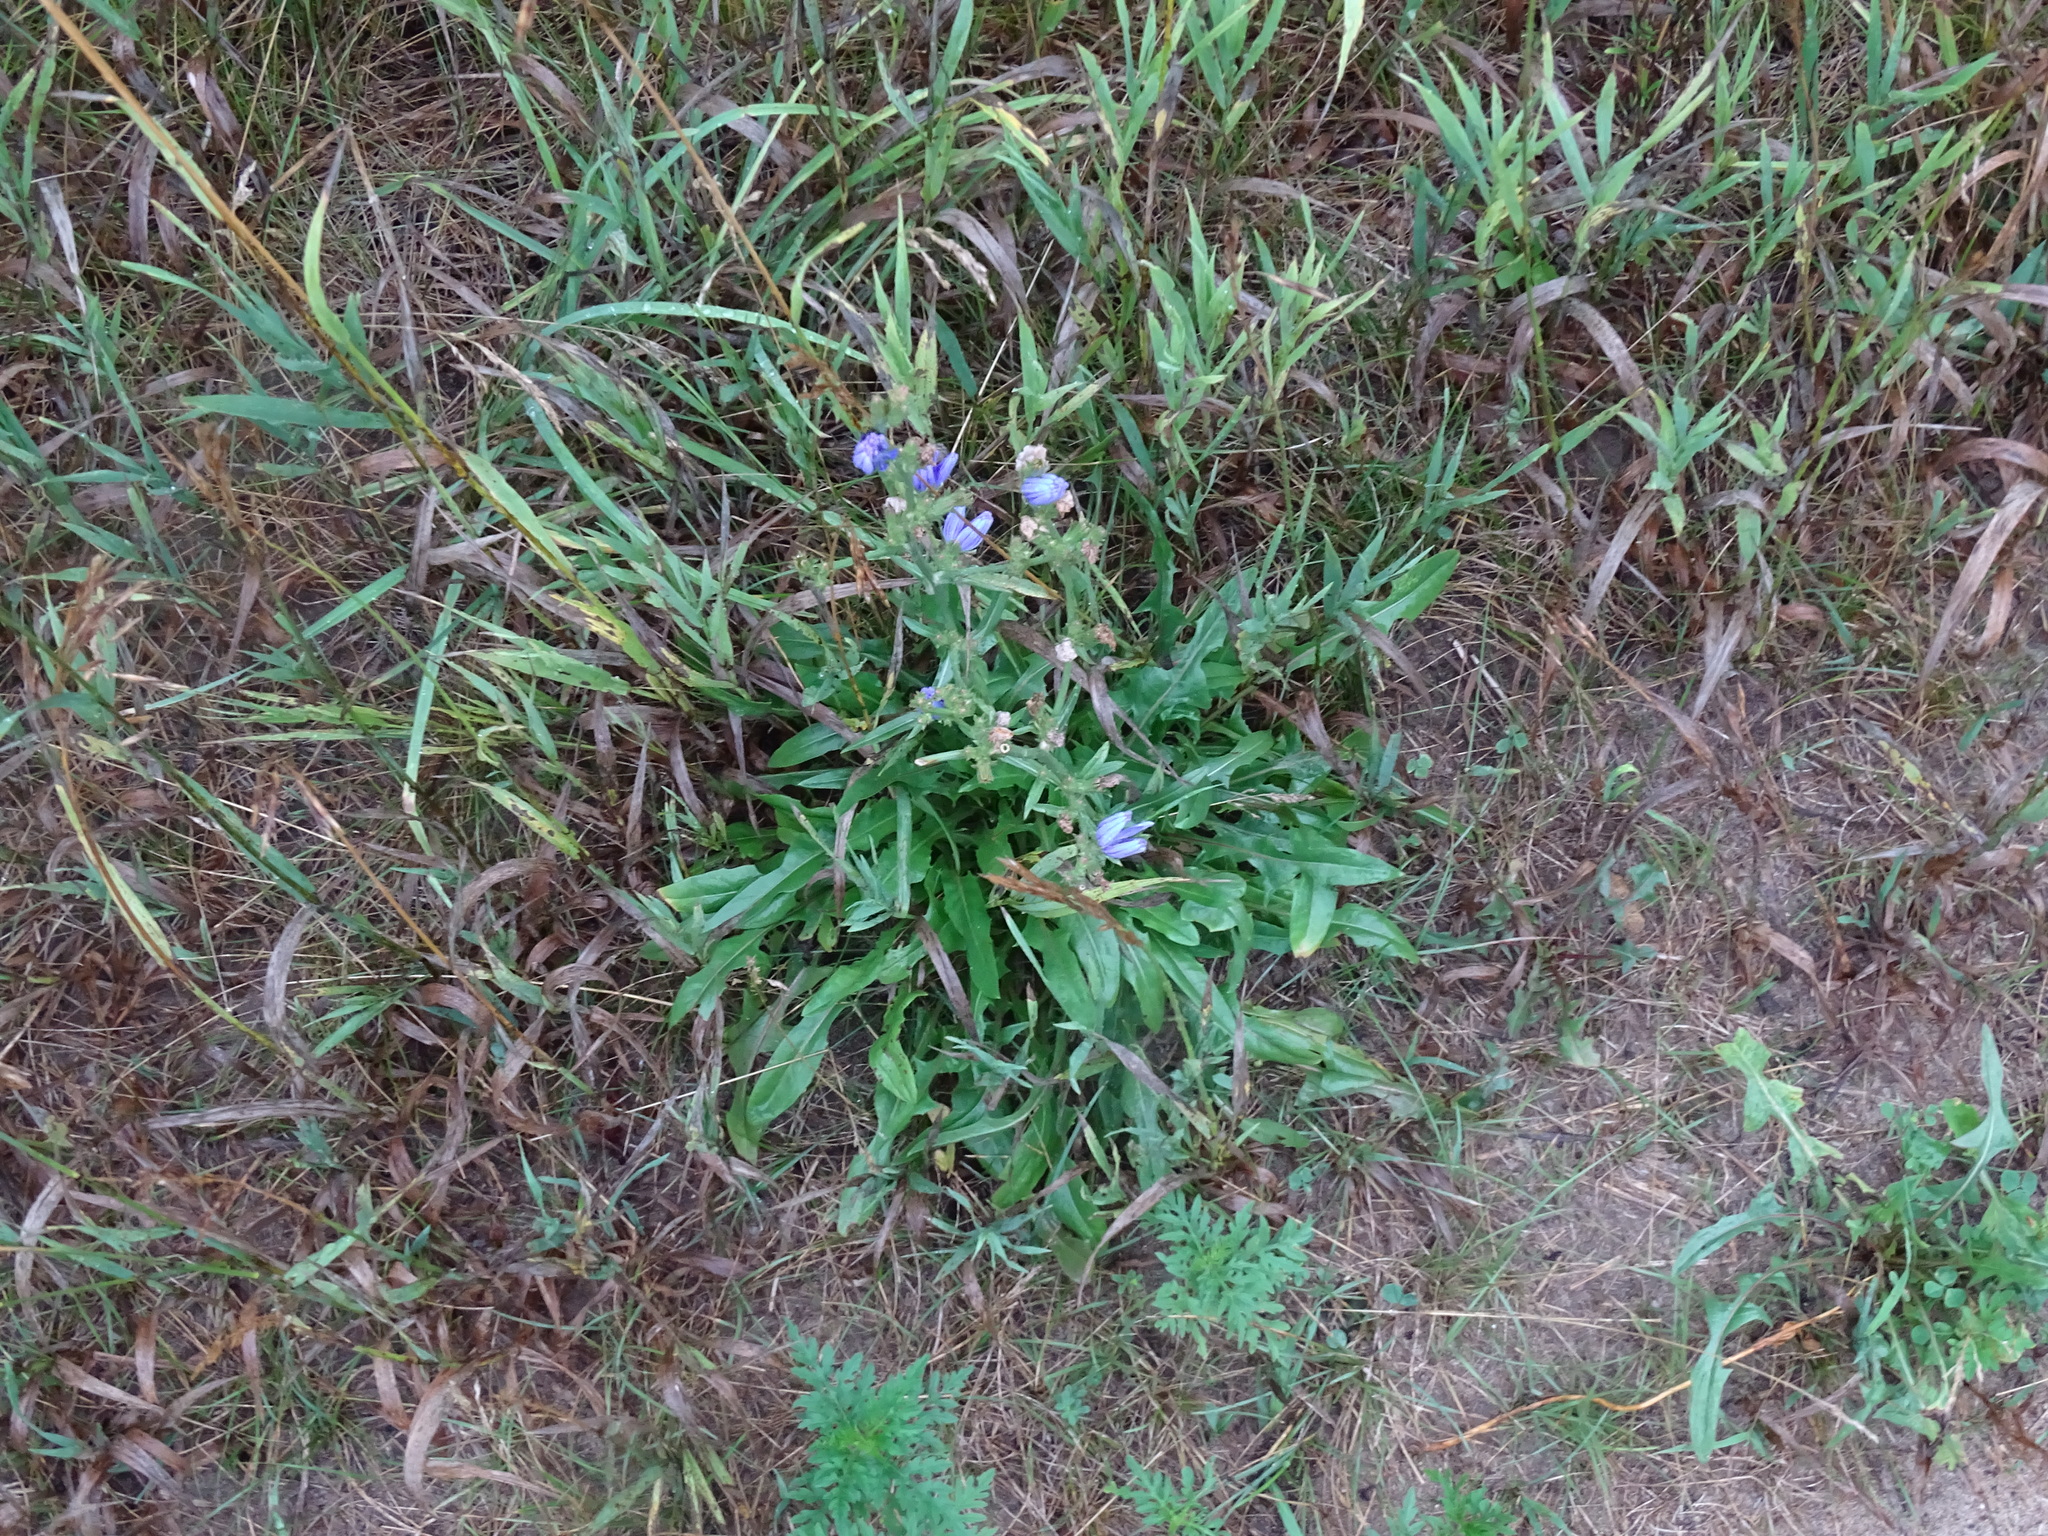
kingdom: Plantae
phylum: Tracheophyta
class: Magnoliopsida
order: Asterales
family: Asteraceae
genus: Cichorium
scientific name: Cichorium intybus
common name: Chicory
